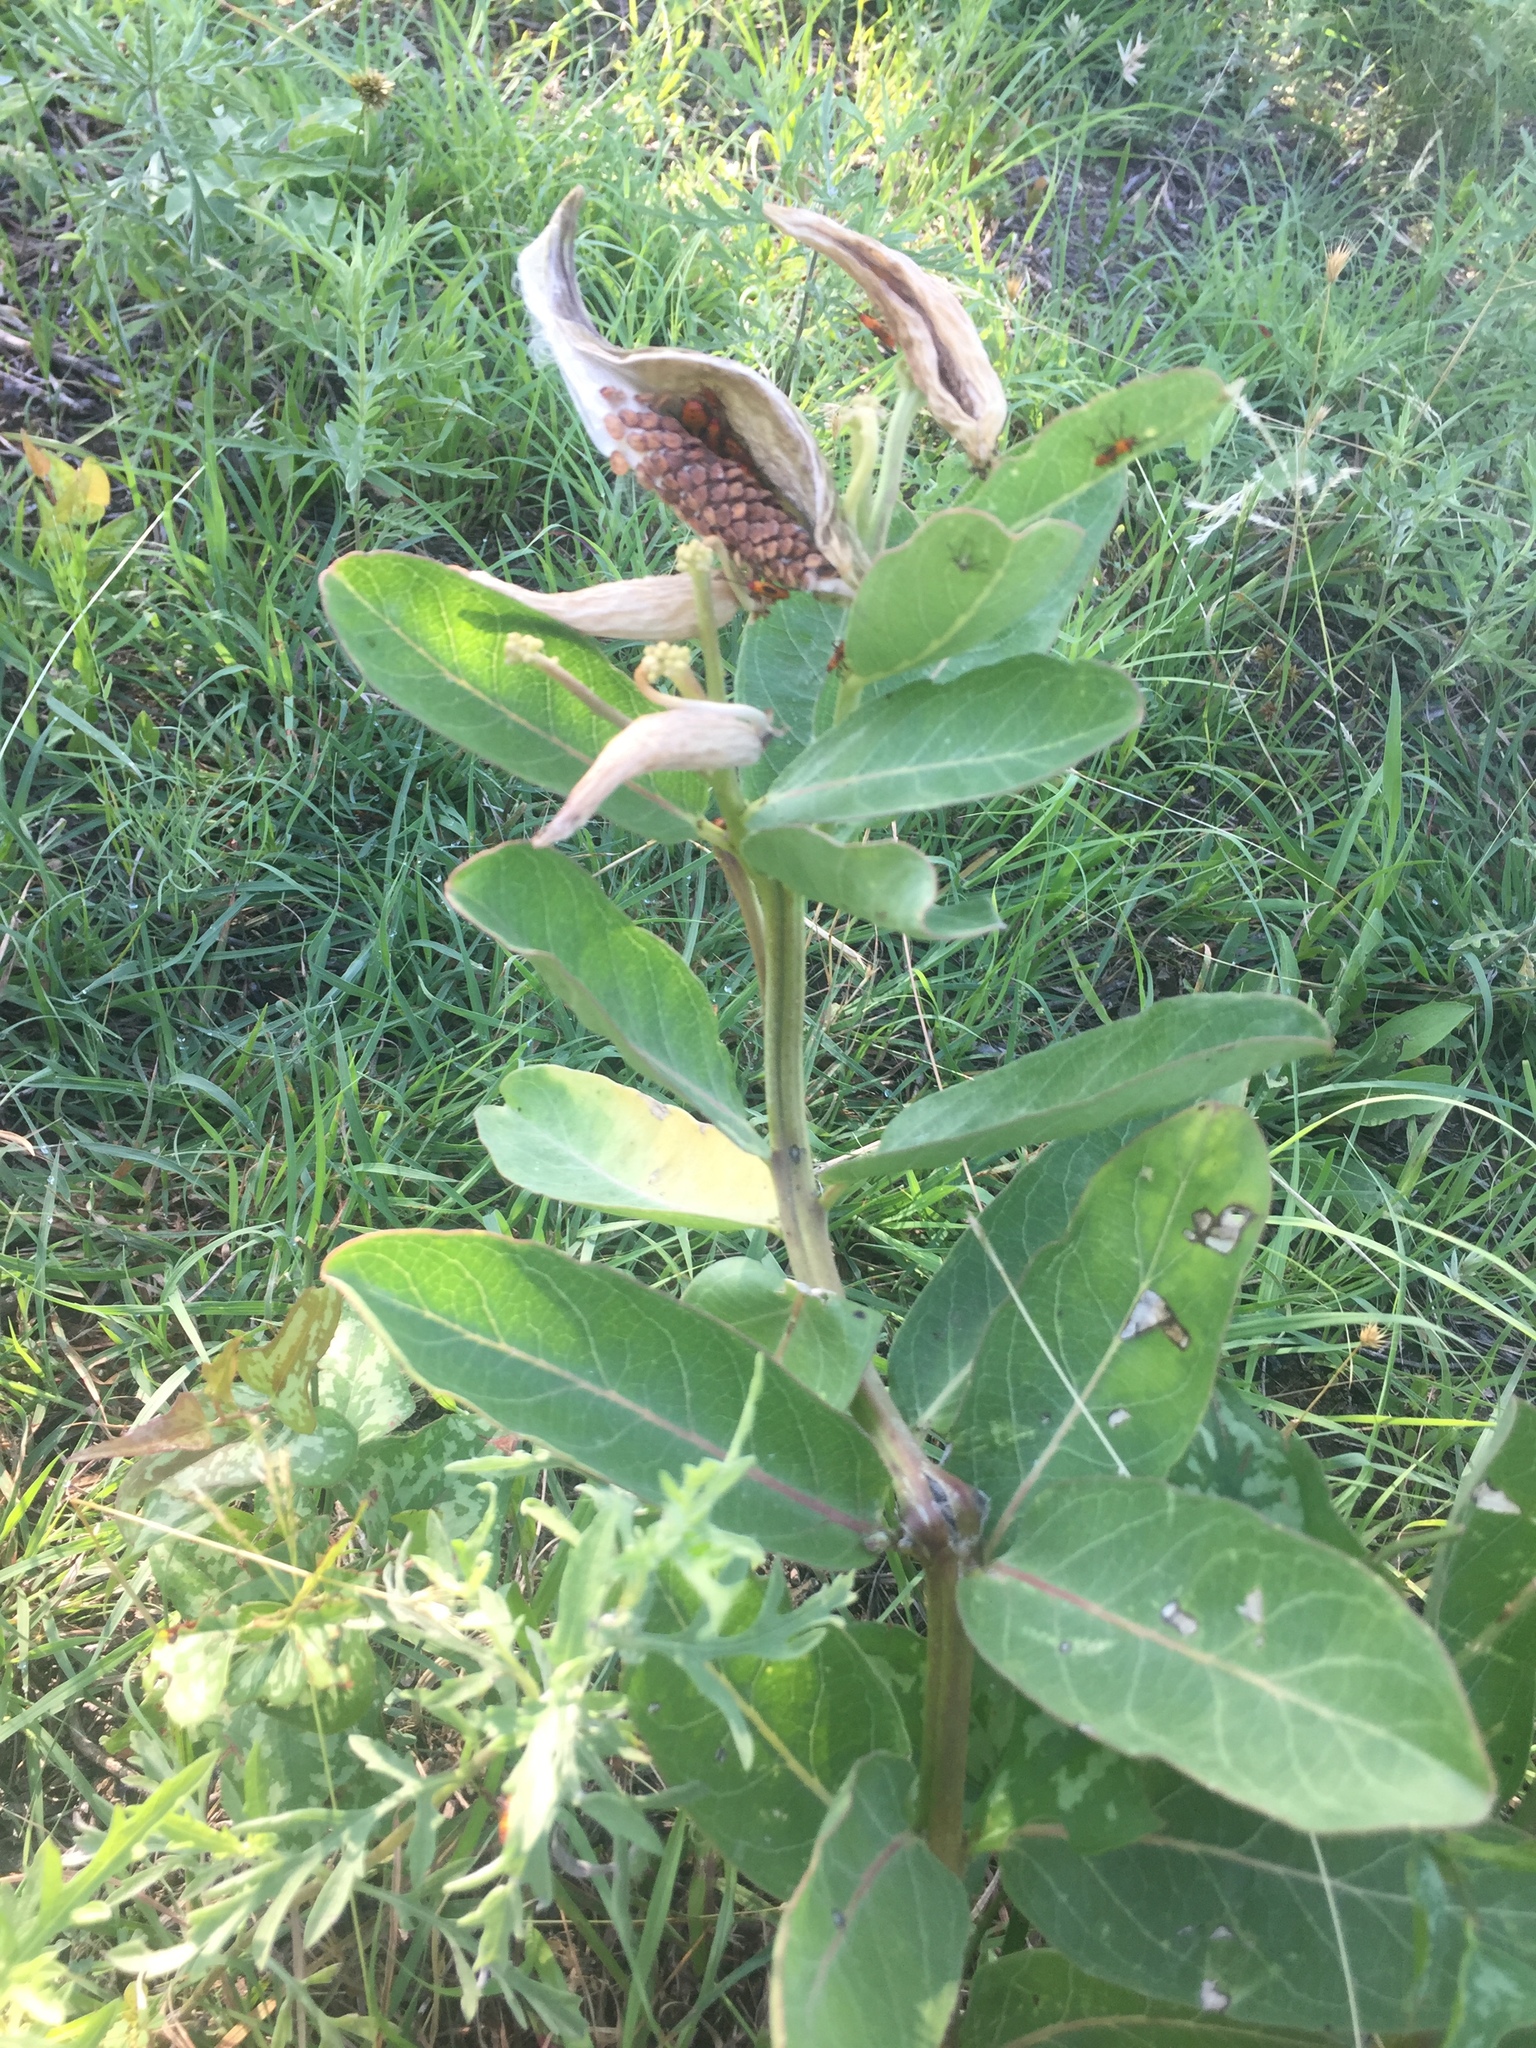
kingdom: Plantae
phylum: Tracheophyta
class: Magnoliopsida
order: Gentianales
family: Apocynaceae
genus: Asclepias
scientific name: Asclepias viridis
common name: Antelope-horns
